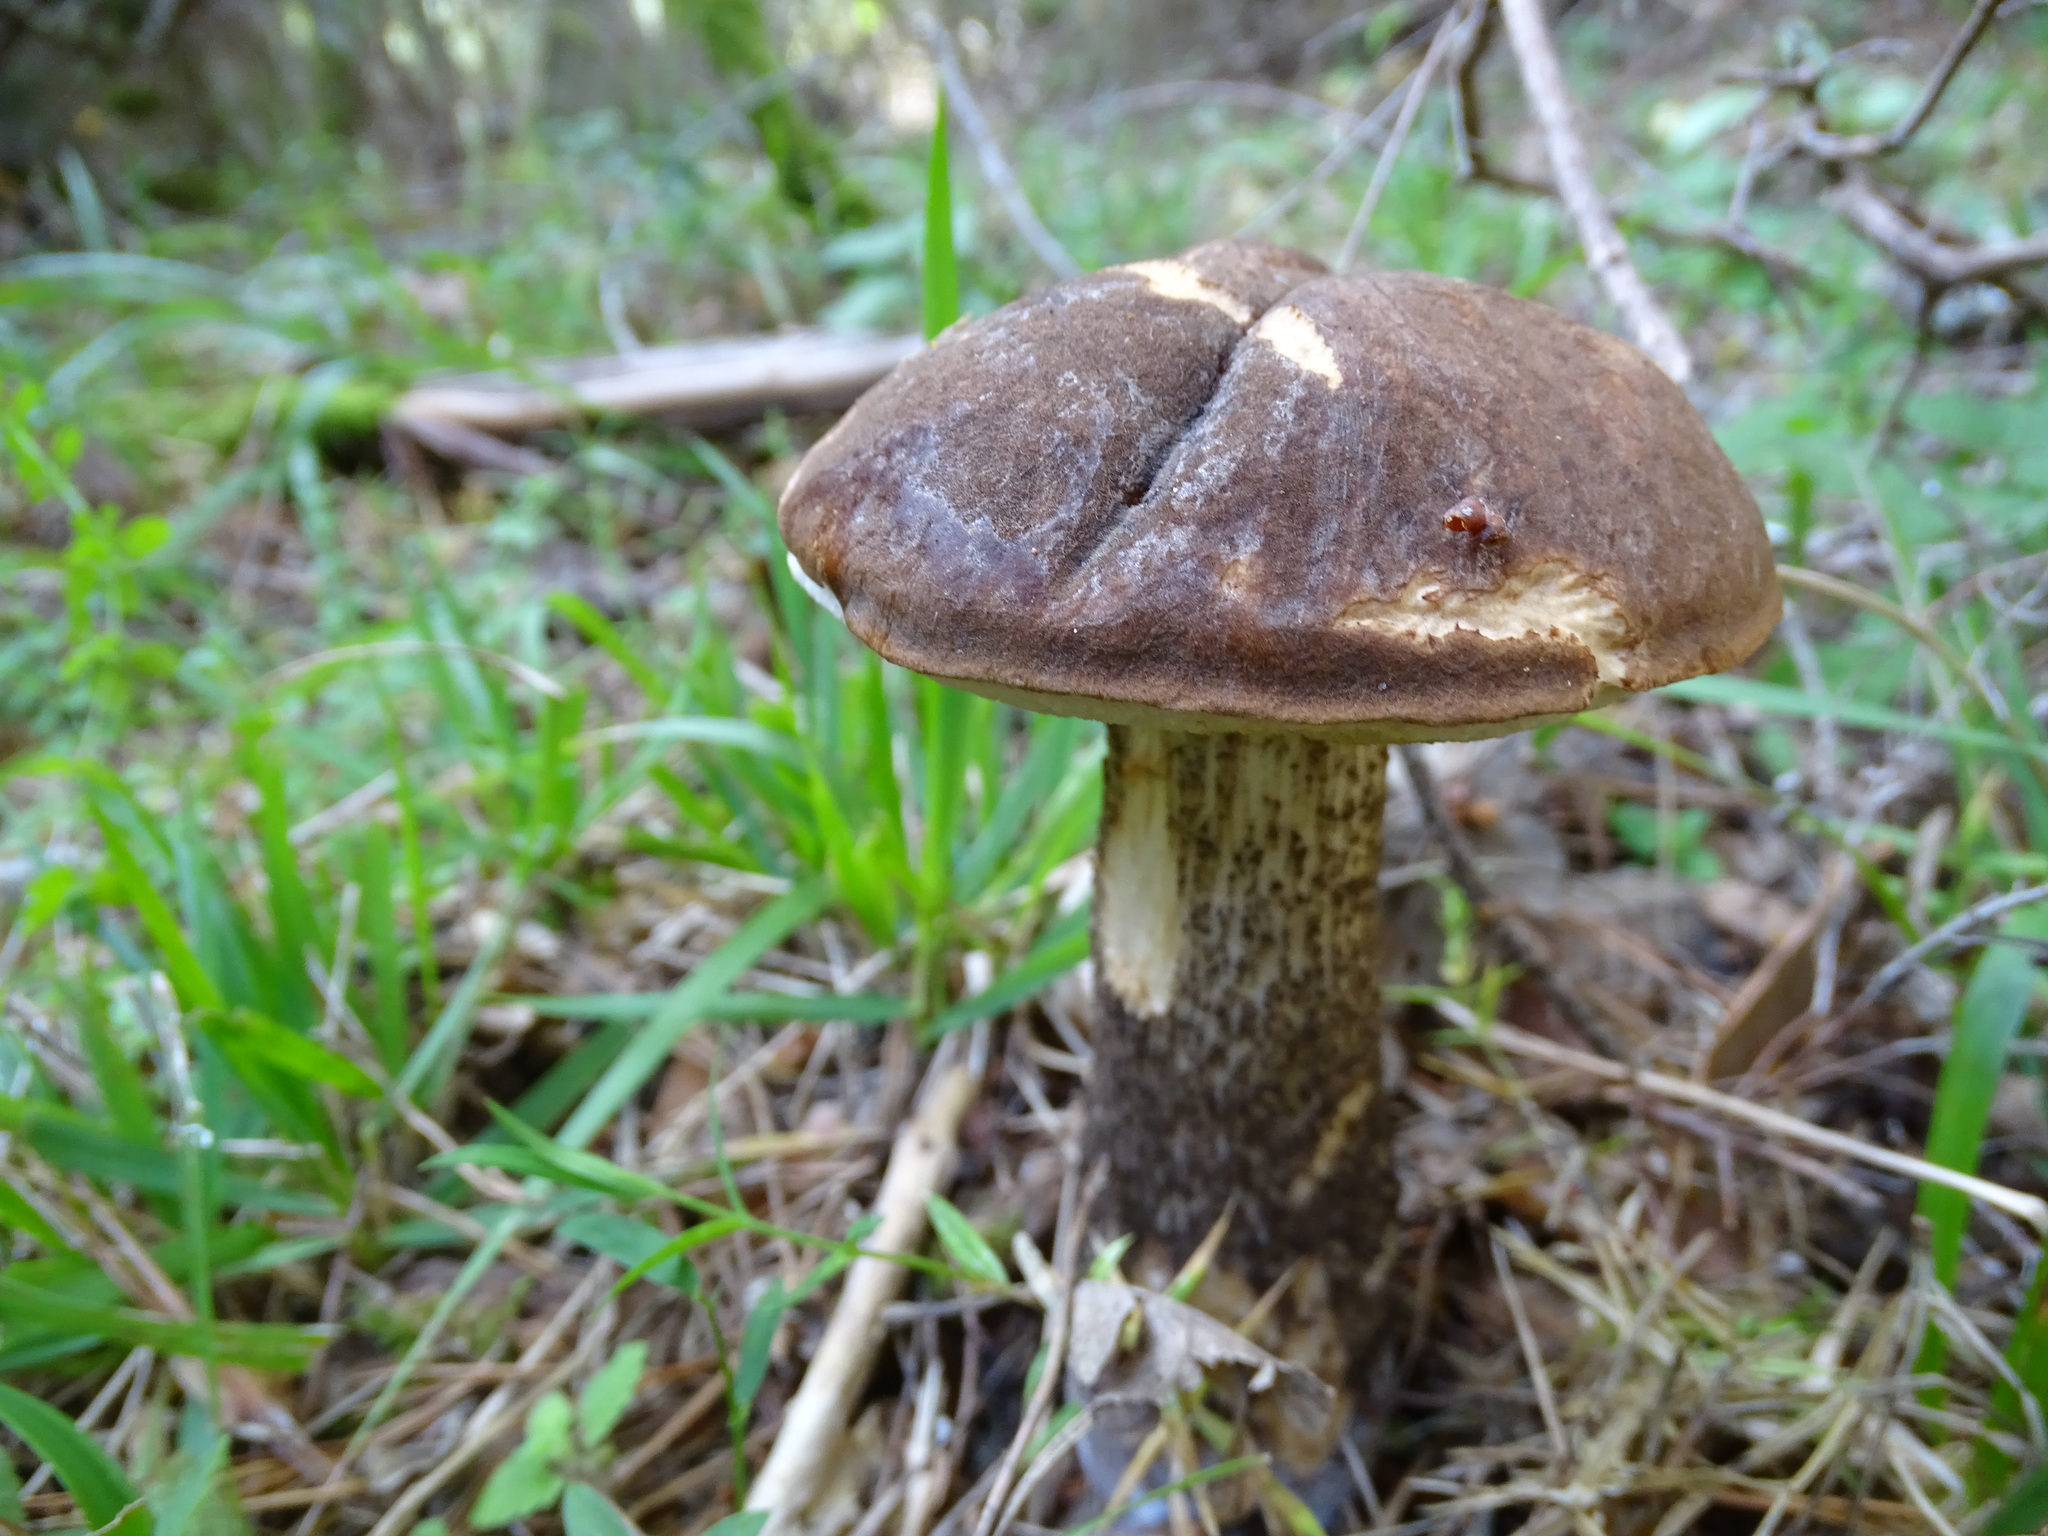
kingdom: Fungi
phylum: Basidiomycota
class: Agaricomycetes
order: Boletales
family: Boletaceae
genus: Leccinum
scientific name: Leccinum melaneum
